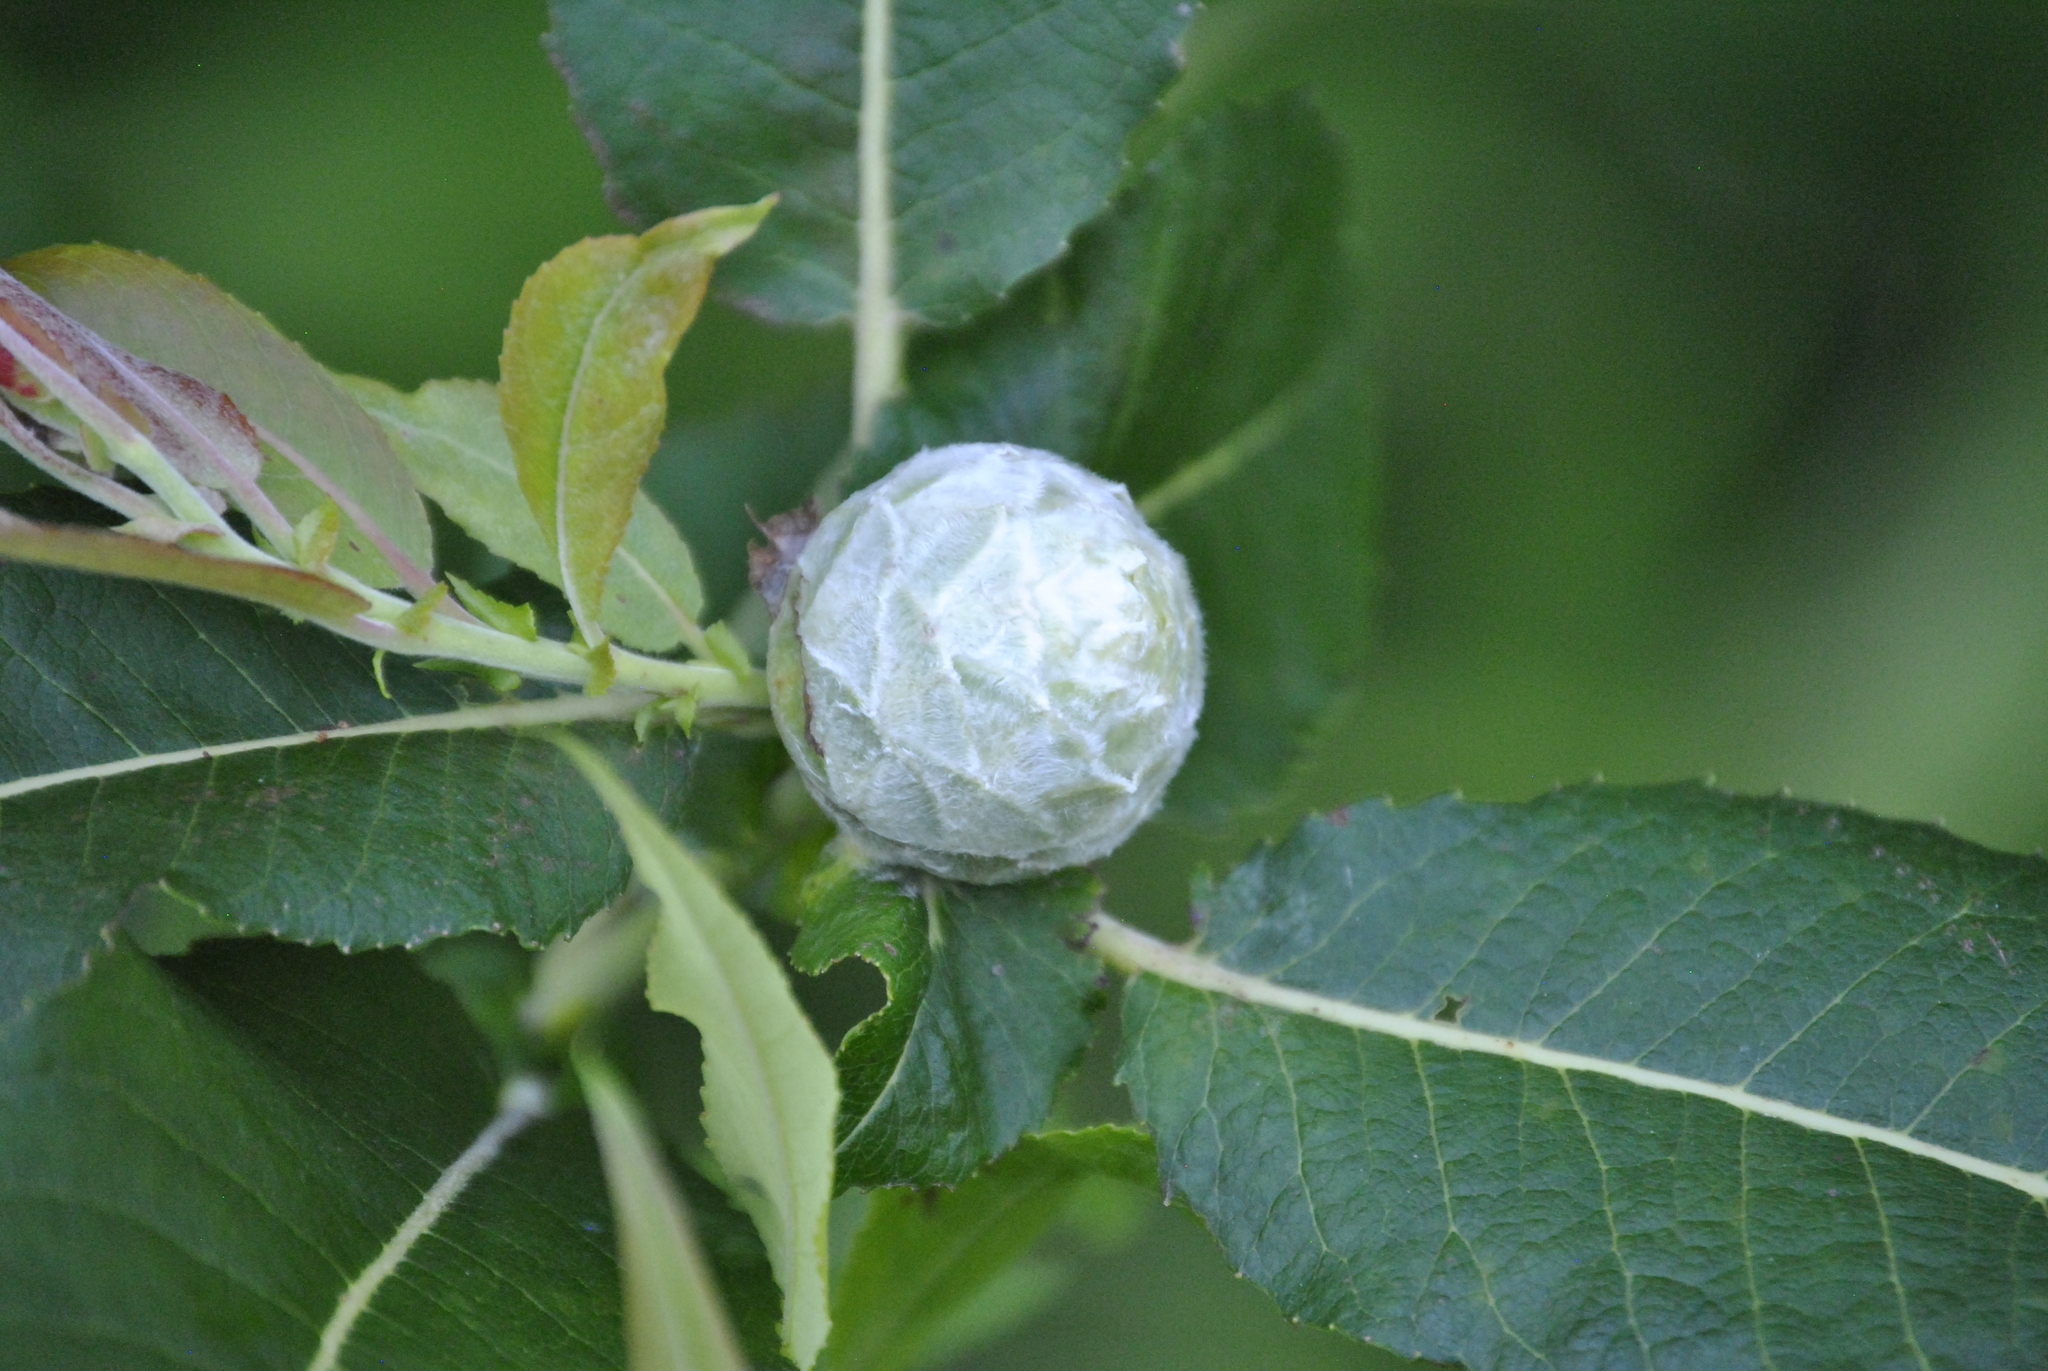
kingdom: Animalia
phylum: Arthropoda
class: Insecta
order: Diptera
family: Cecidomyiidae
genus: Rabdophaga
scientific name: Rabdophaga strobiloides
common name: Willow pinecone gall midge
